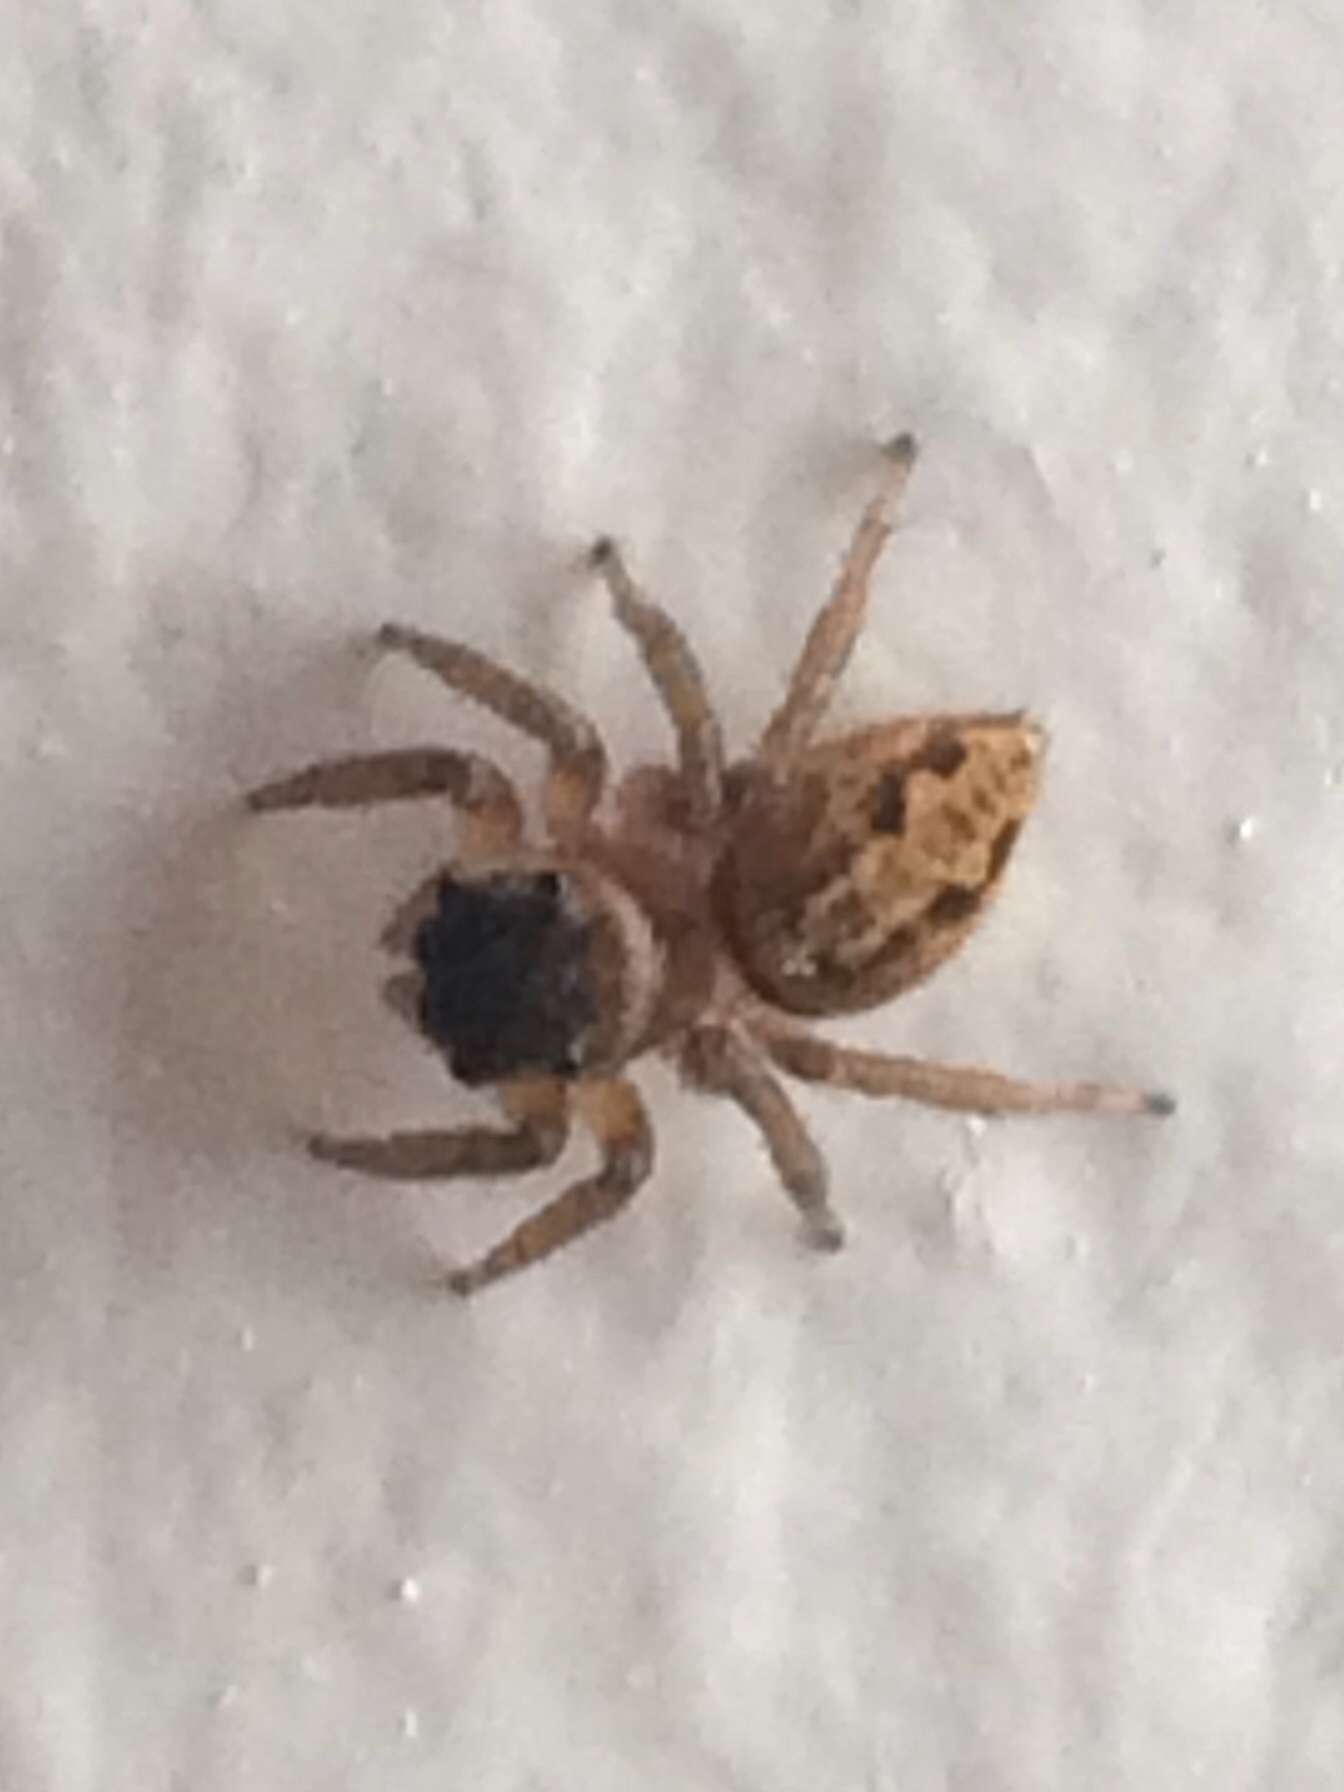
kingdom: Animalia
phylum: Arthropoda
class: Arachnida
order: Araneae
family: Salticidae
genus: Hasarius
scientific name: Hasarius adansoni
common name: Jumping spider
